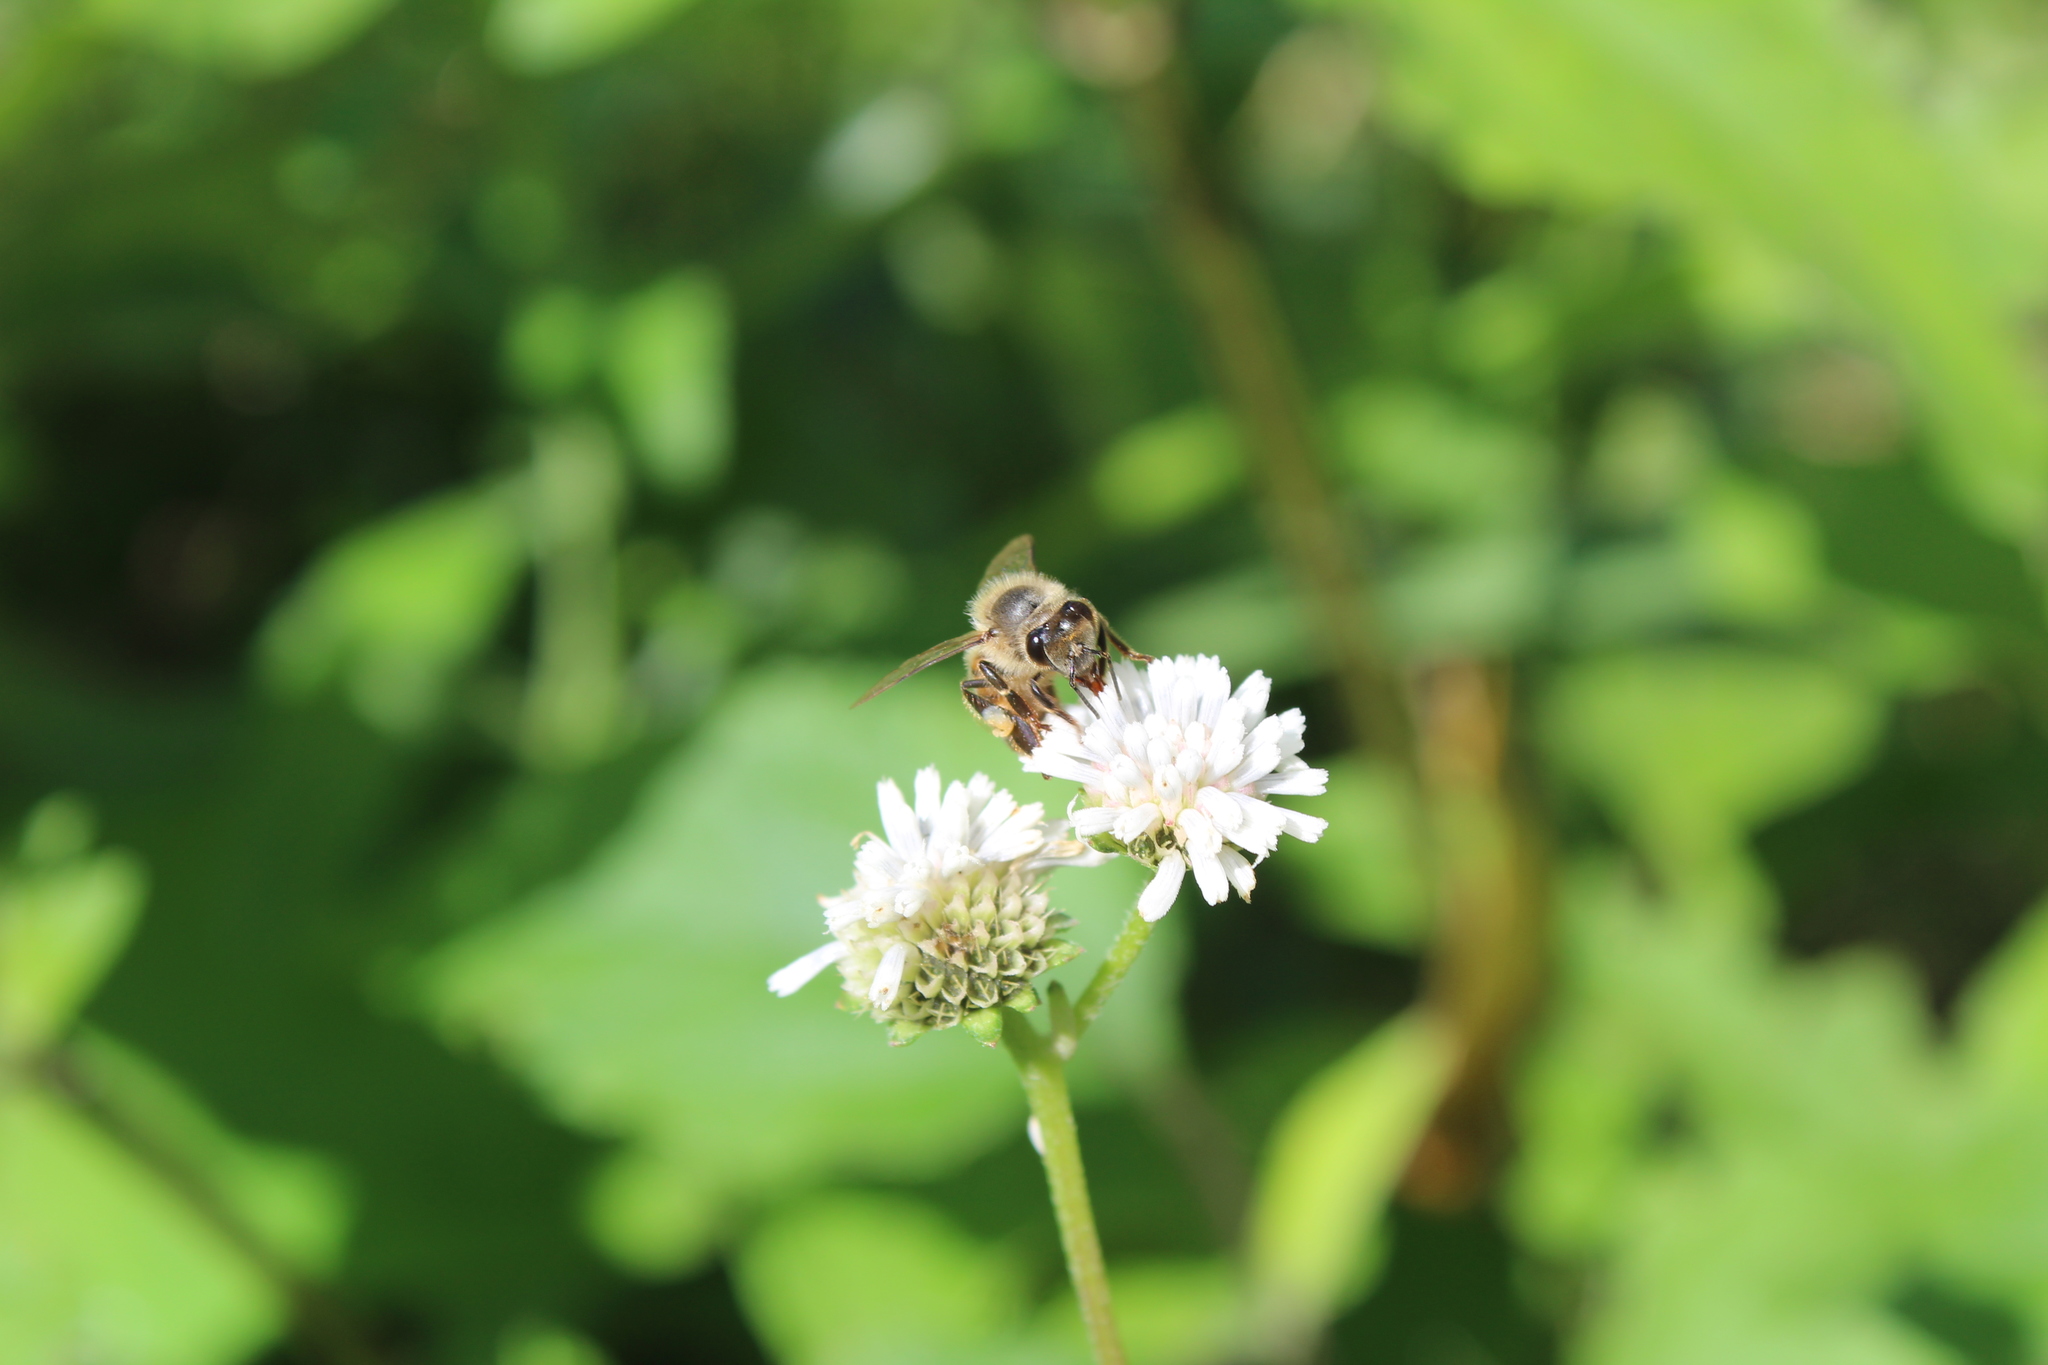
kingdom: Animalia
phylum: Arthropoda
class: Insecta
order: Hymenoptera
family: Apidae
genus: Apis
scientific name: Apis mellifera
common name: Honey bee
